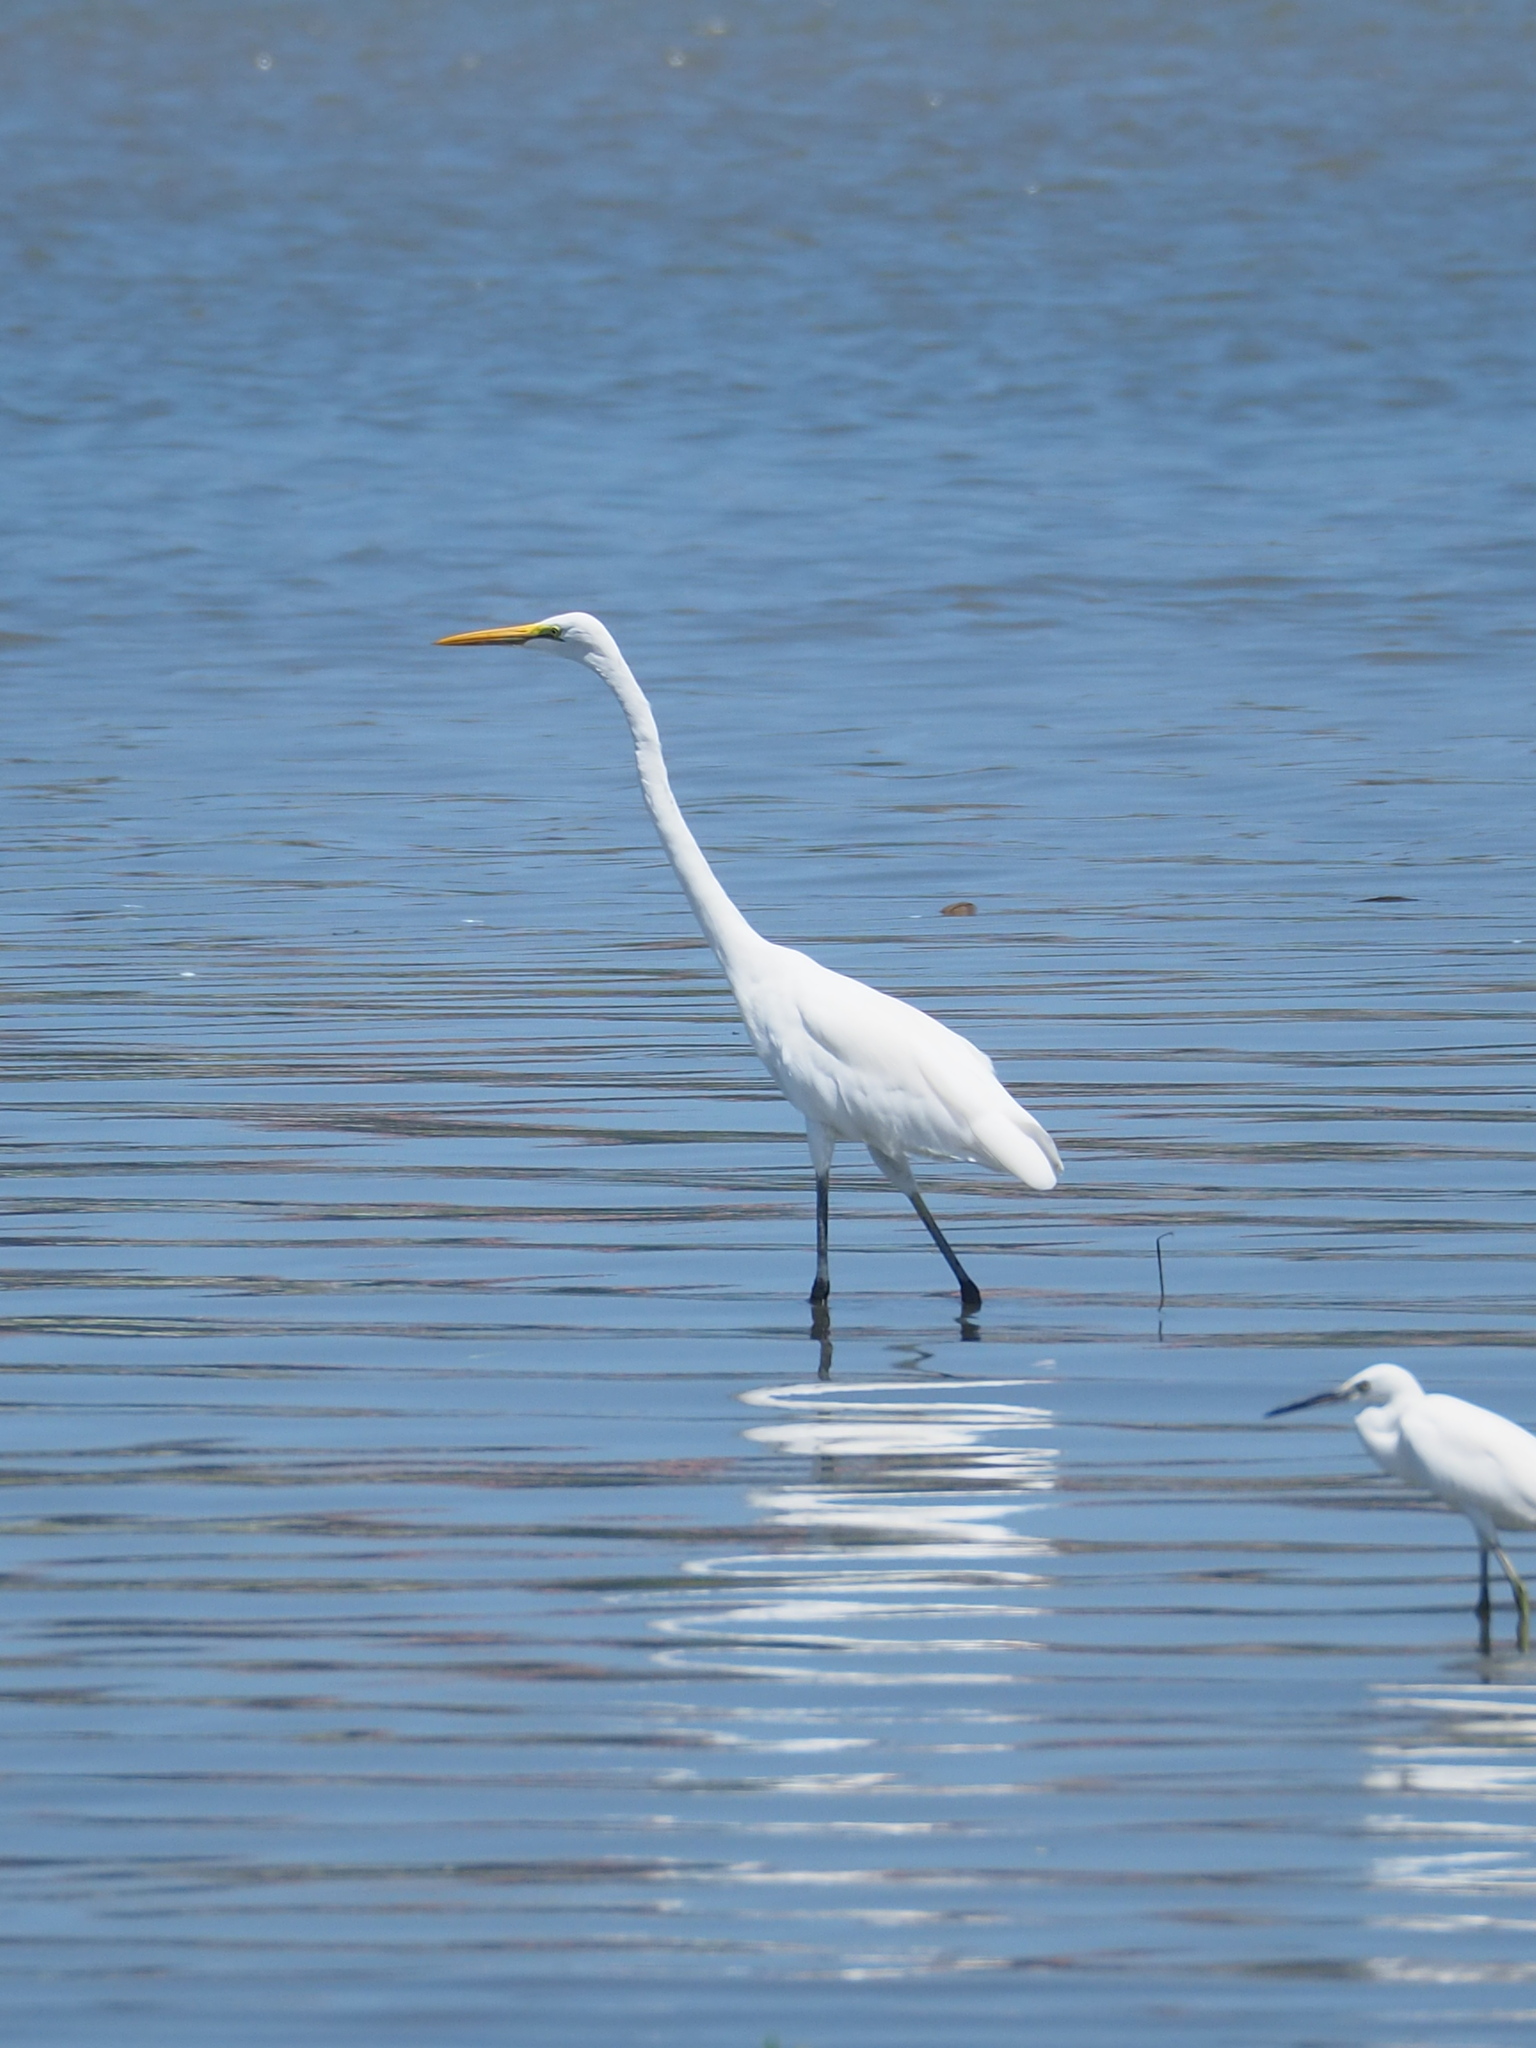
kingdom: Animalia
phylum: Chordata
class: Aves
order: Pelecaniformes
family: Ardeidae
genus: Ardea
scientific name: Ardea alba
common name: Great egret
